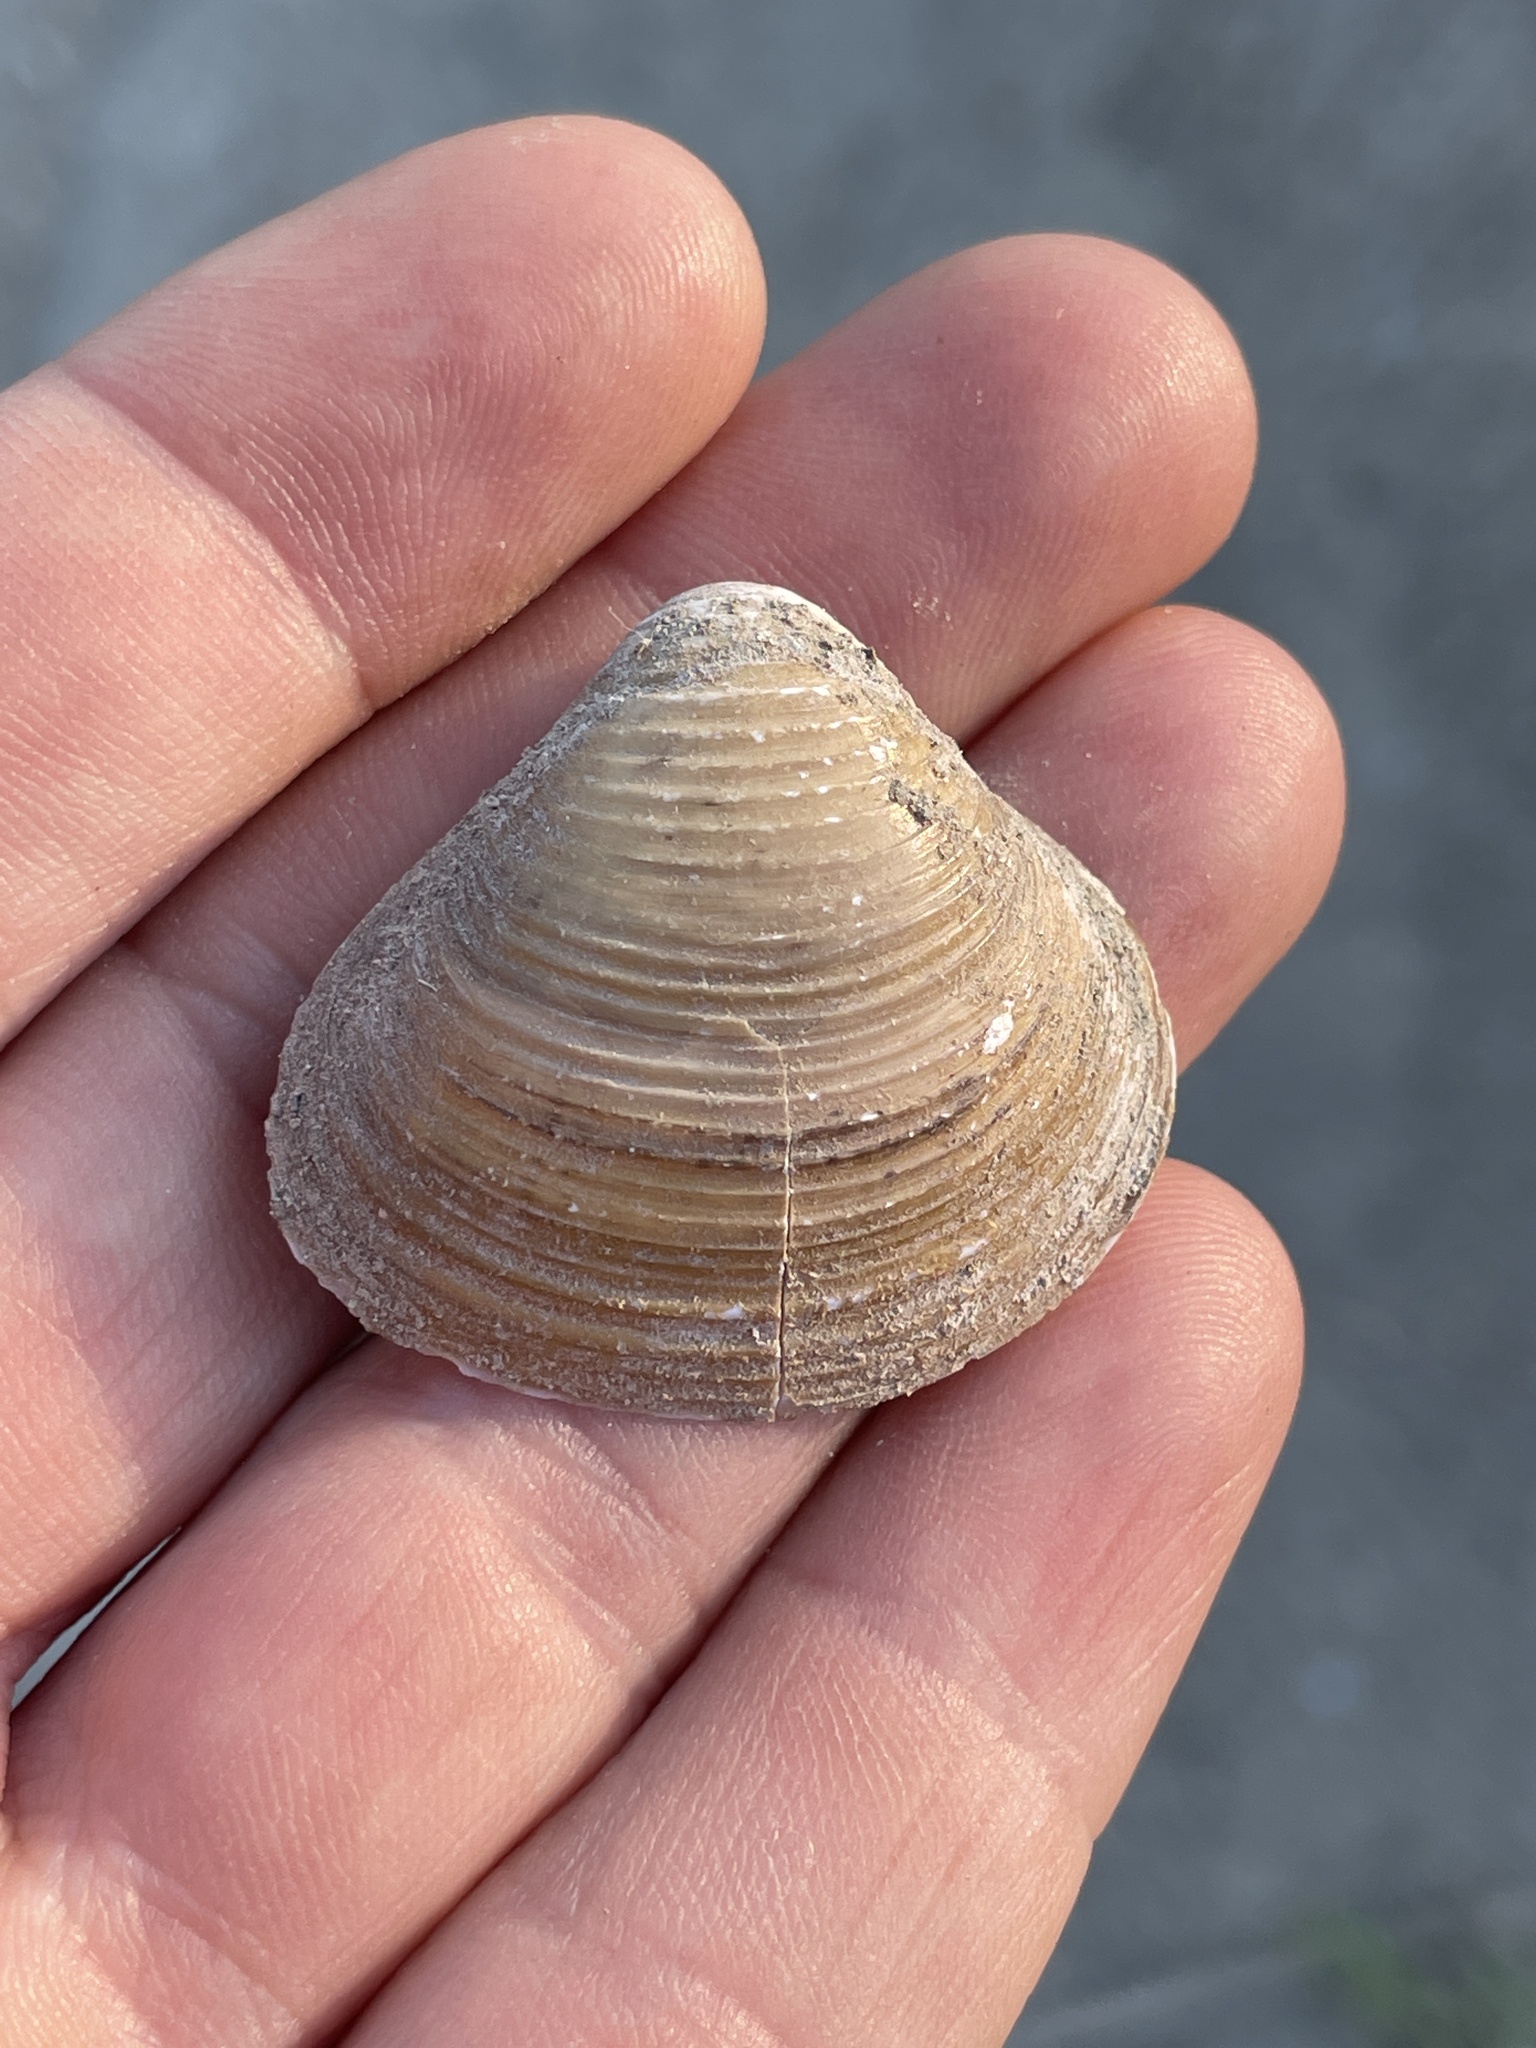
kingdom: Animalia
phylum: Mollusca
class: Bivalvia
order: Venerida
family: Cyrenidae
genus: Corbicula
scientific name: Corbicula fluminea
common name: Asian clam
